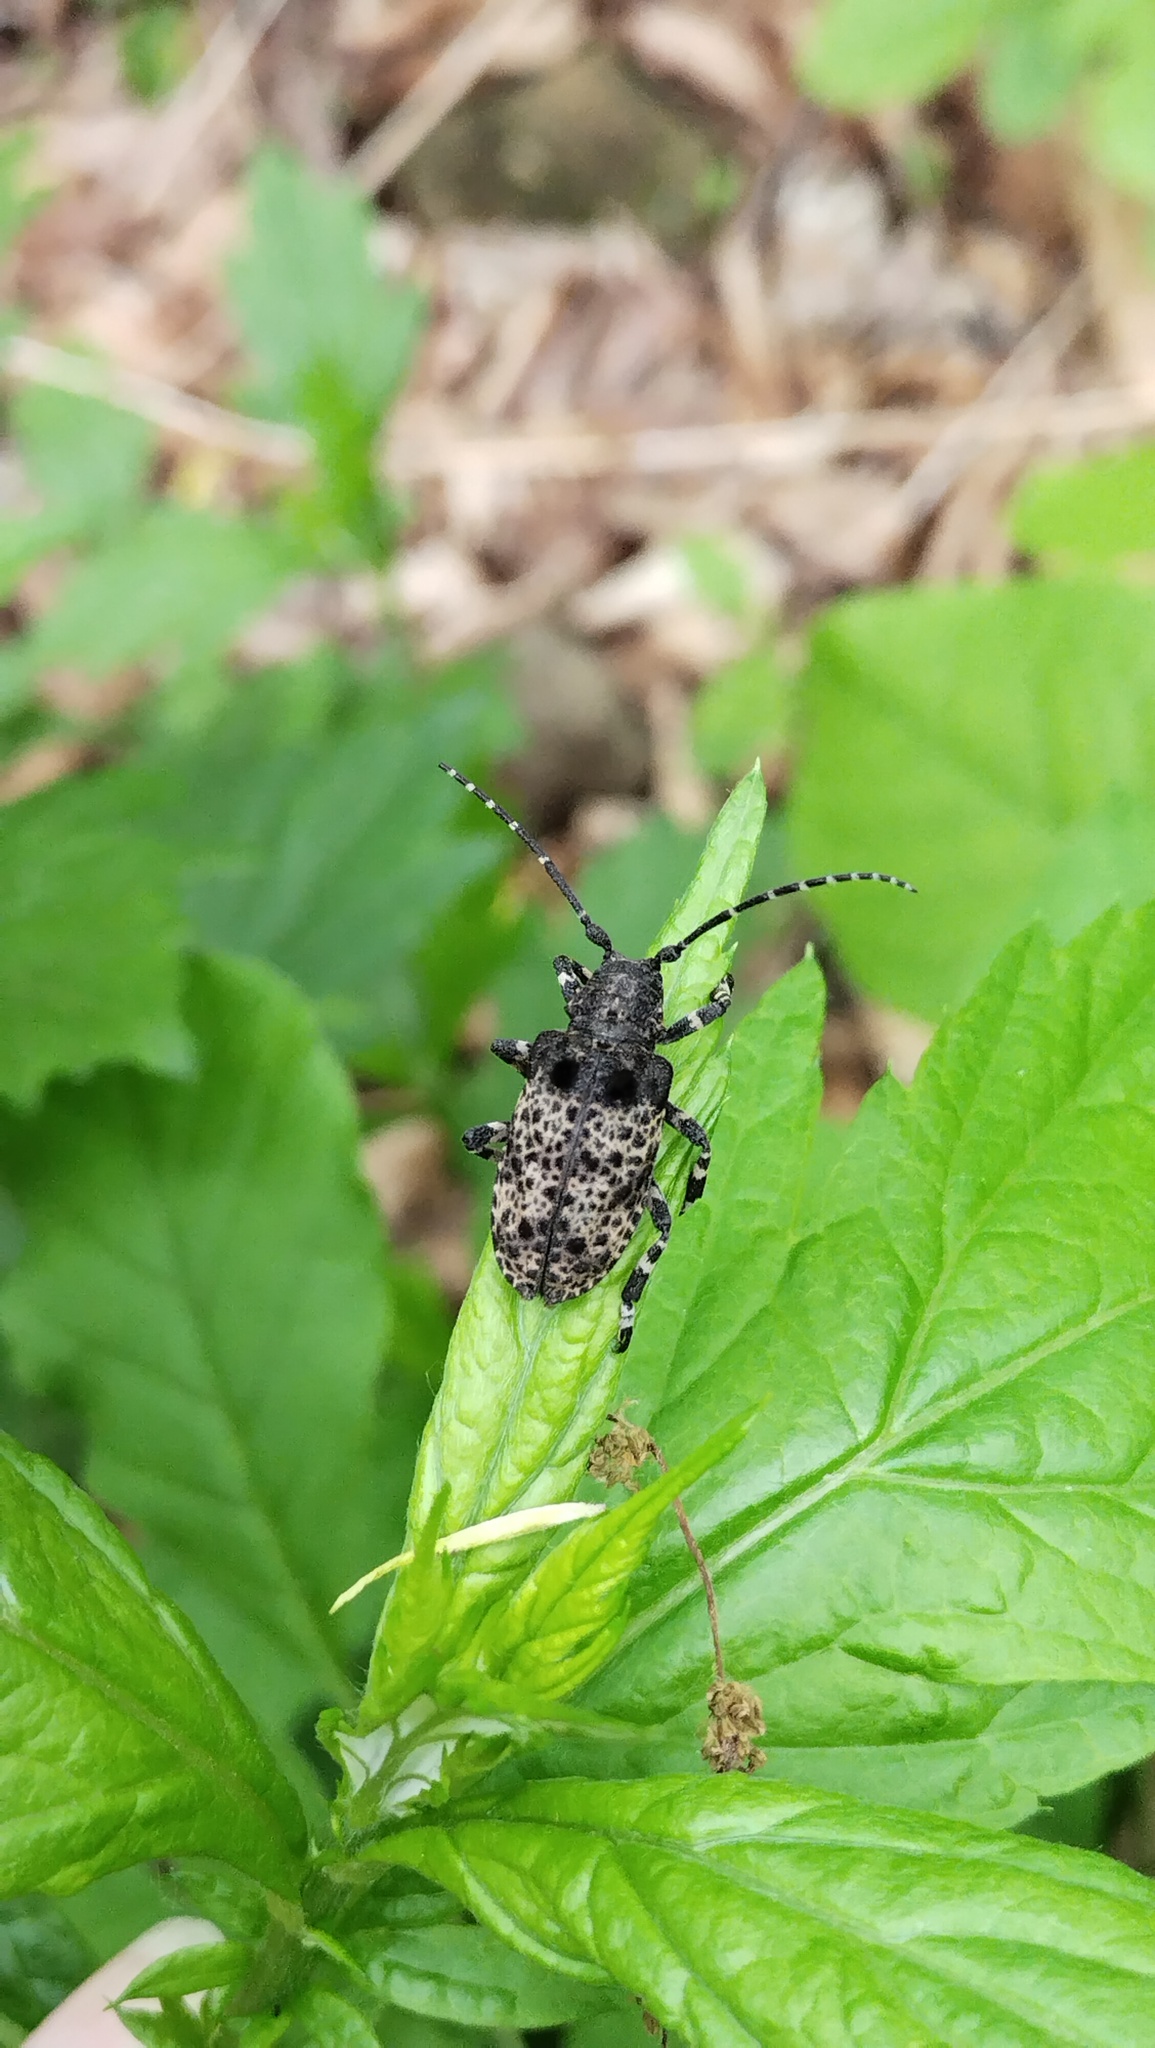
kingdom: Animalia
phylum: Arthropoda
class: Insecta
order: Coleoptera
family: Cerambycidae
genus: Moechotypa
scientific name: Moechotypa diphysis
